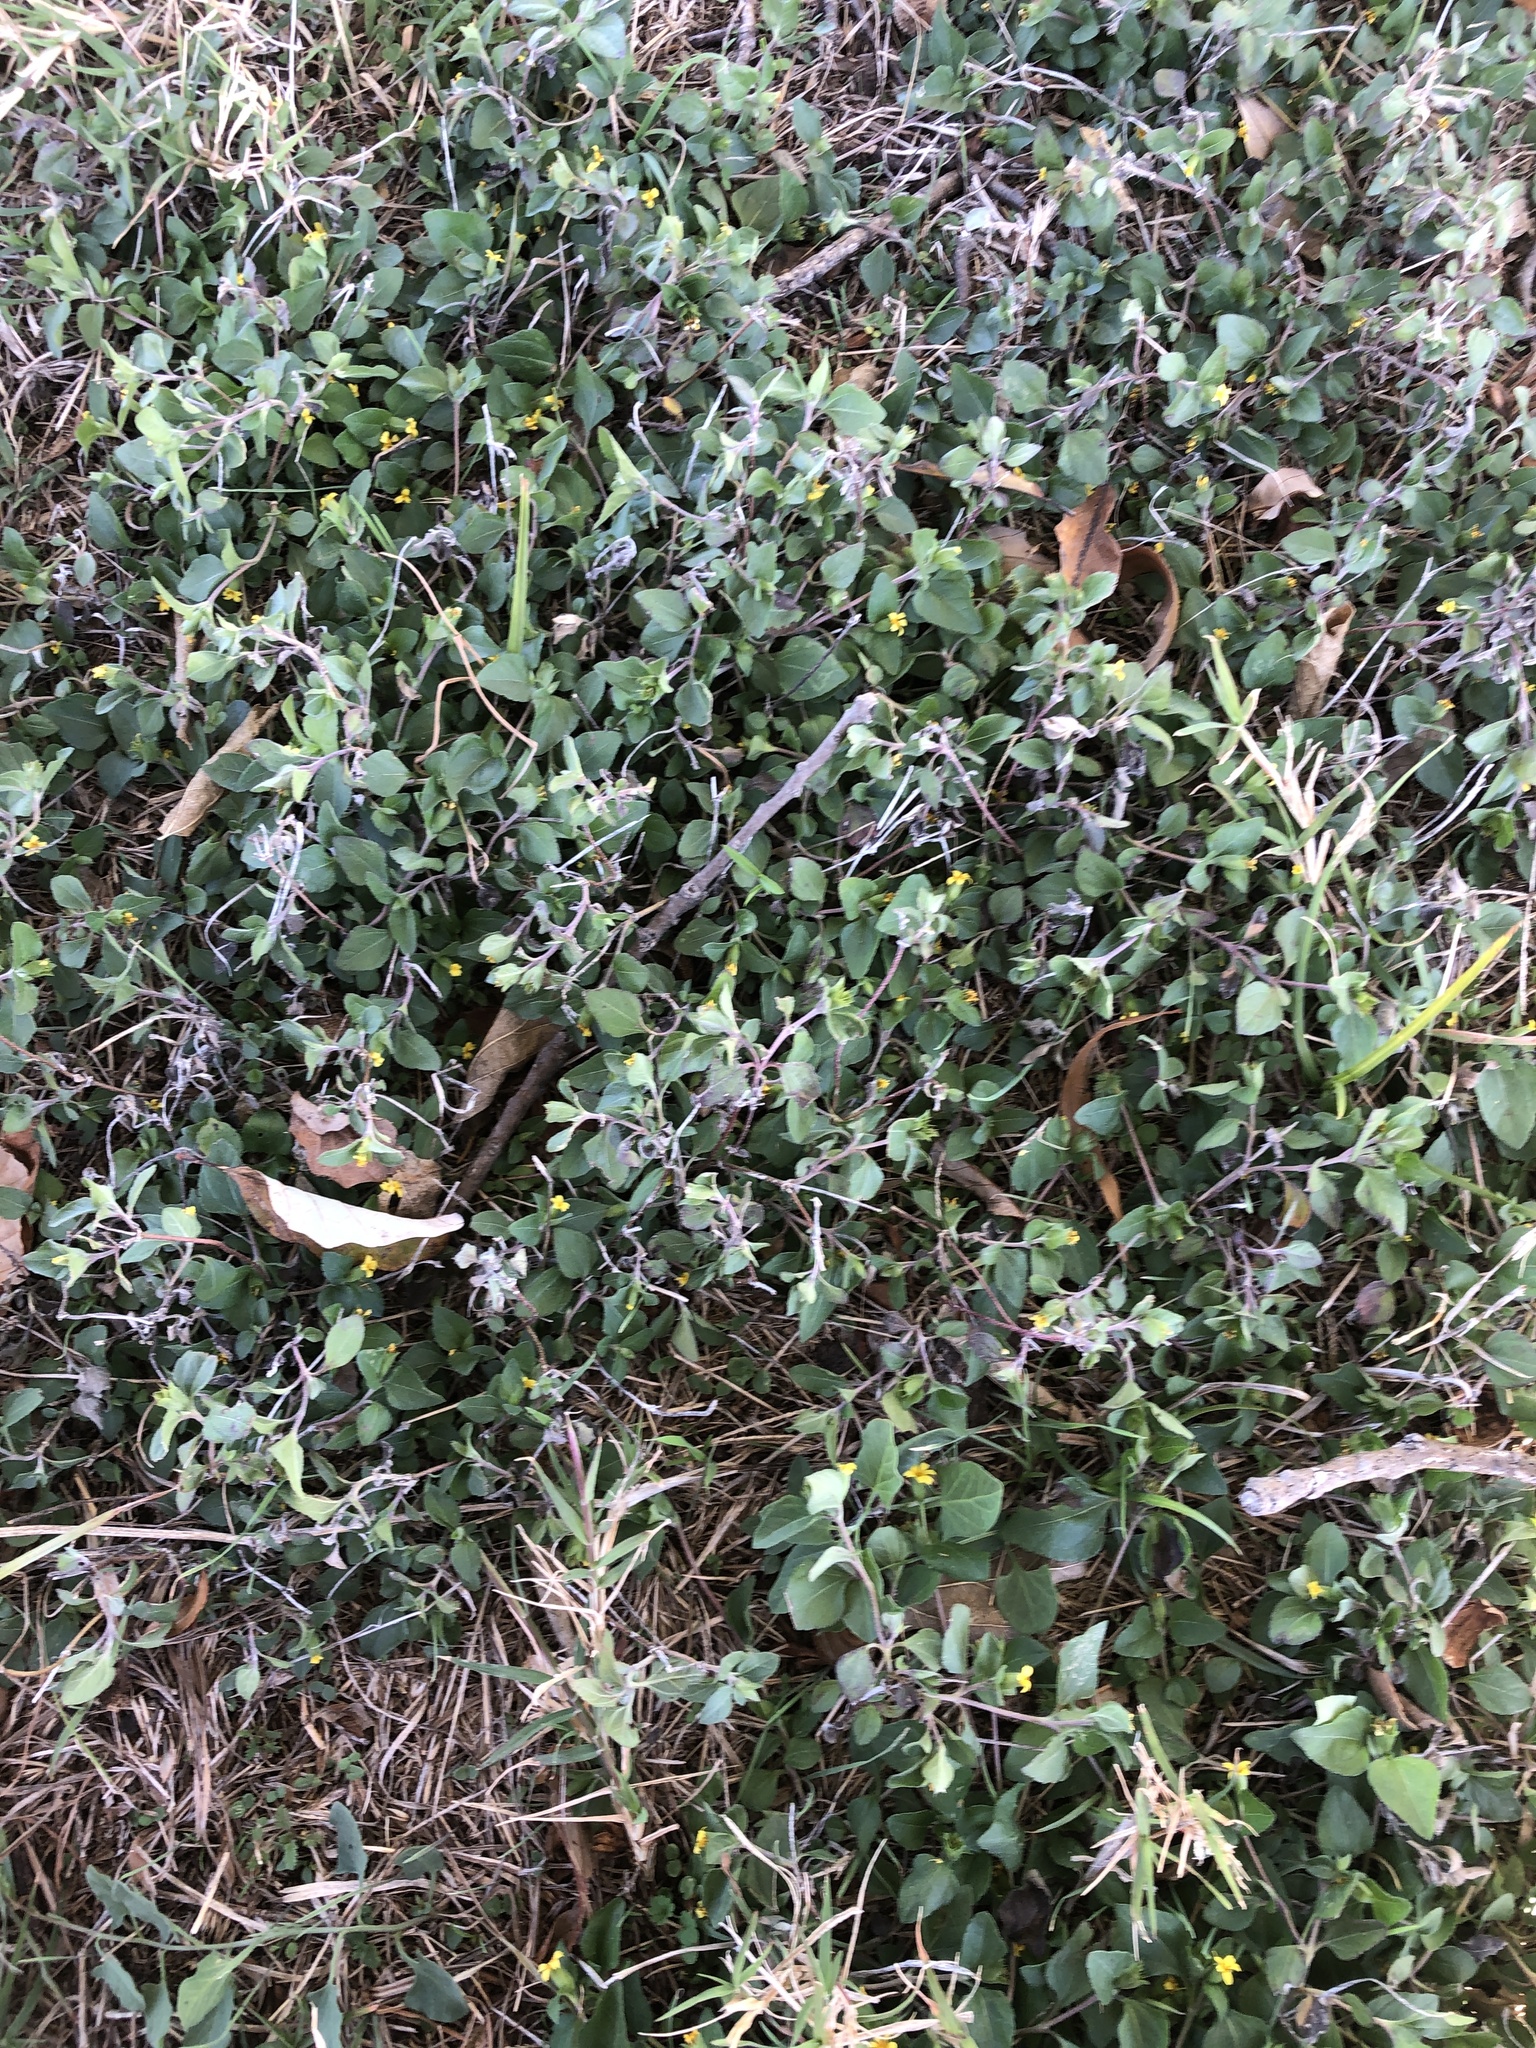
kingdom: Plantae
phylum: Tracheophyta
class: Magnoliopsida
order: Asterales
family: Asteraceae
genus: Calyptocarpus
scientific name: Calyptocarpus vialis
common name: Straggler daisy
